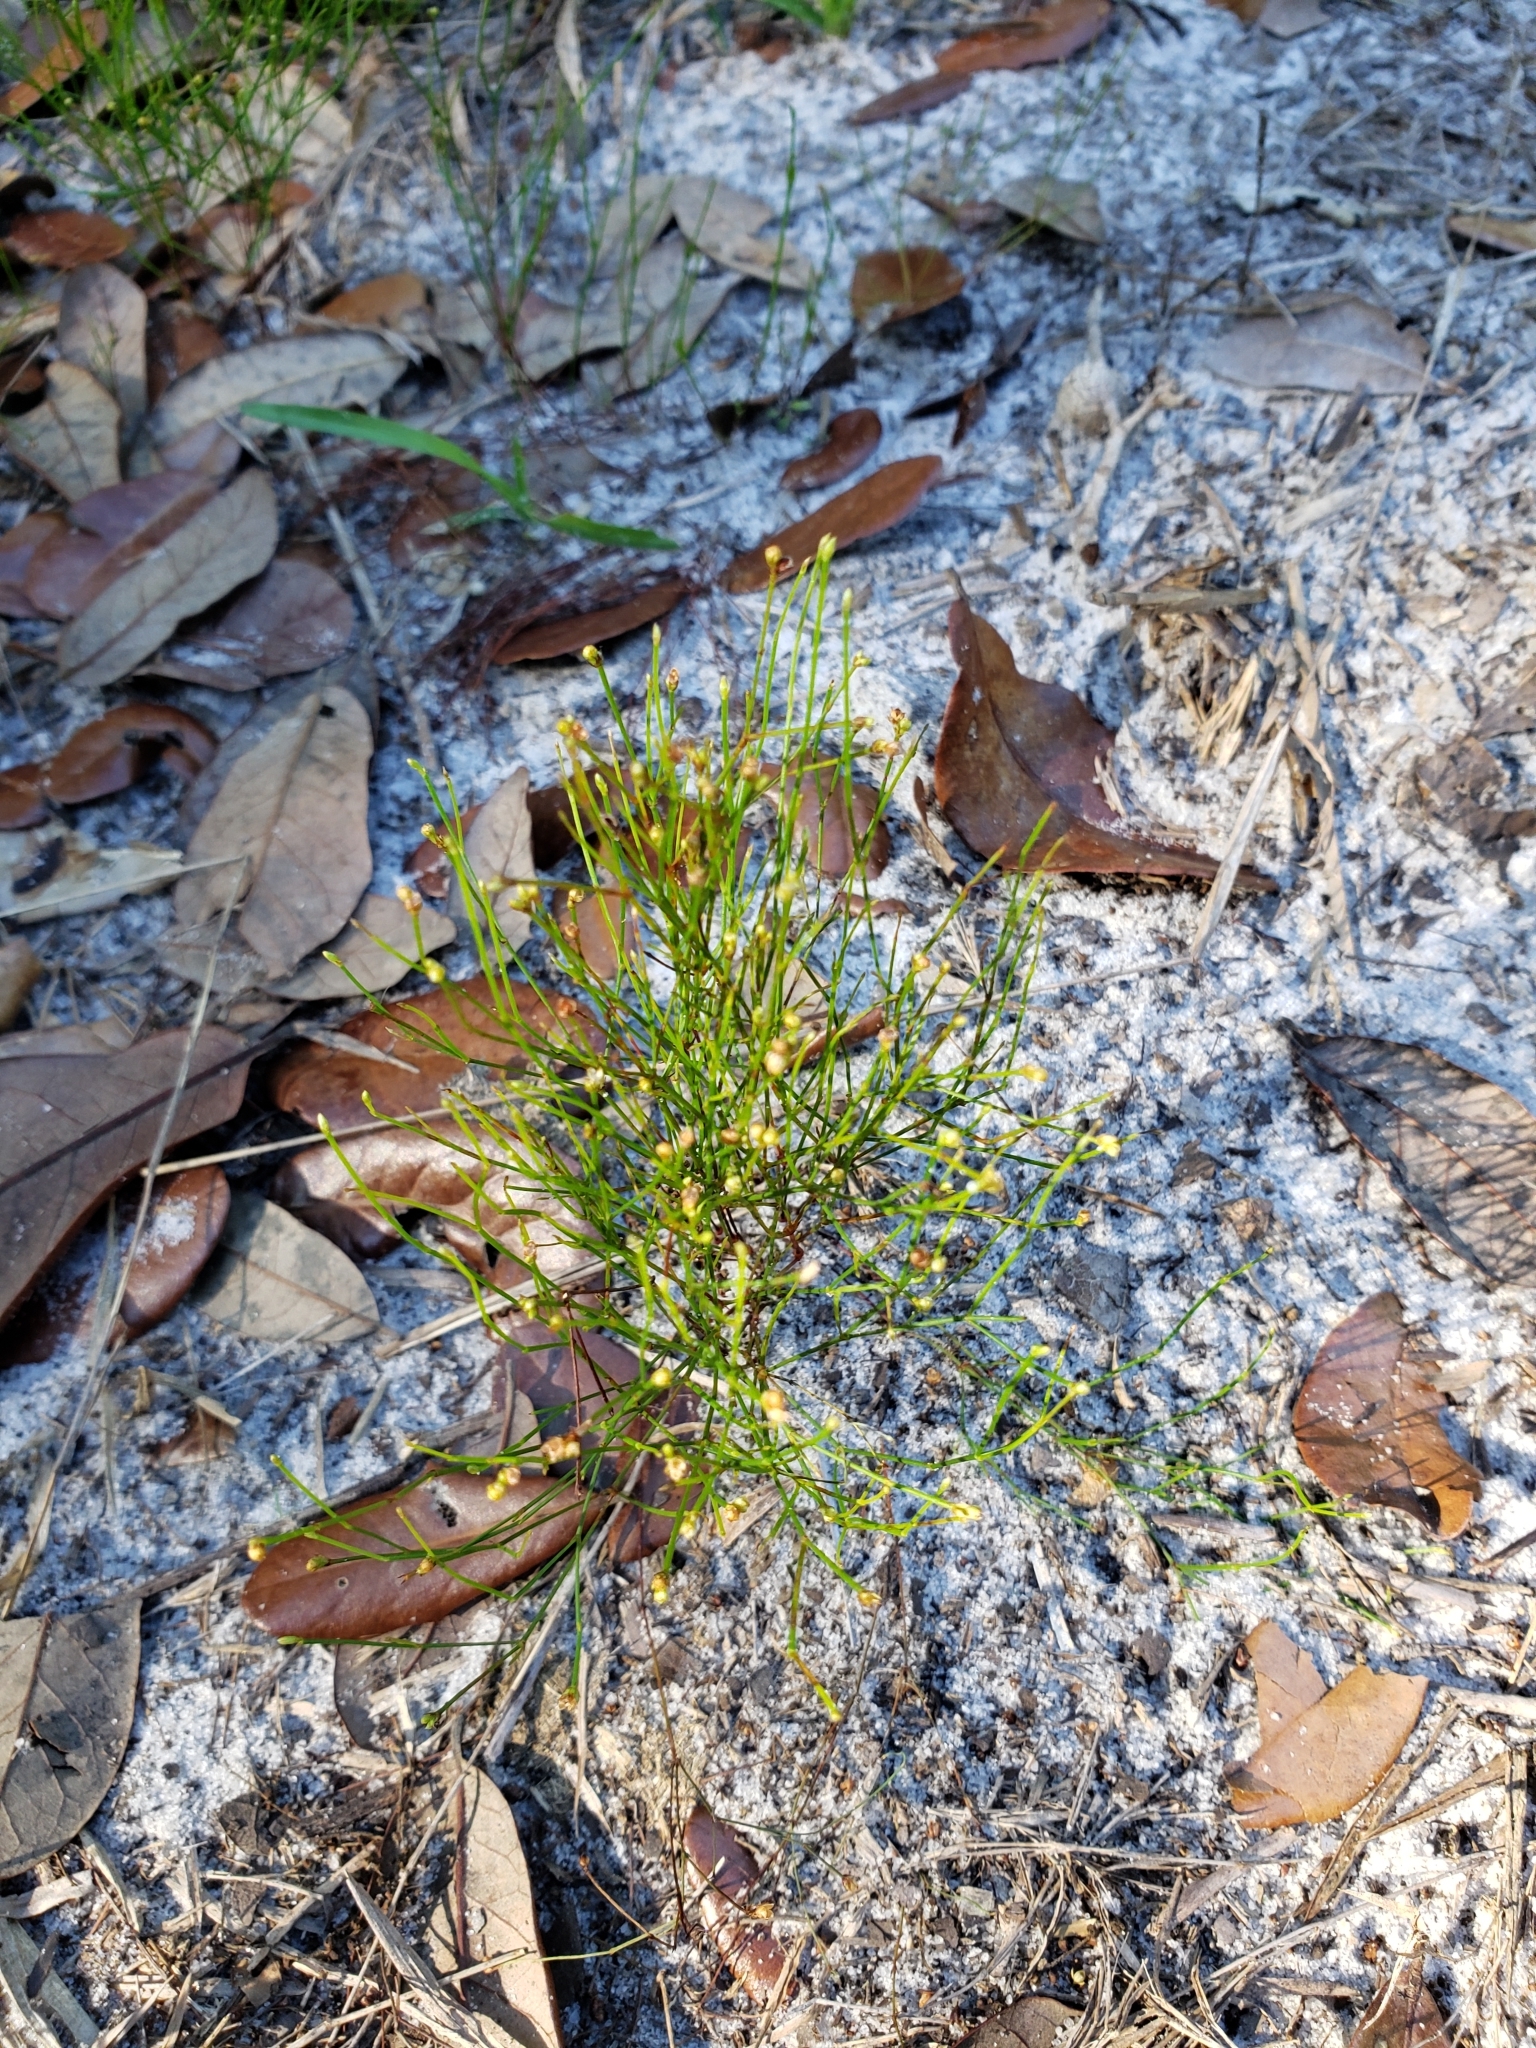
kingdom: Plantae
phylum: Tracheophyta
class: Magnoliopsida
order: Caryophyllales
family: Caryophyllaceae
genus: Stipulicida
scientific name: Stipulicida setacea
